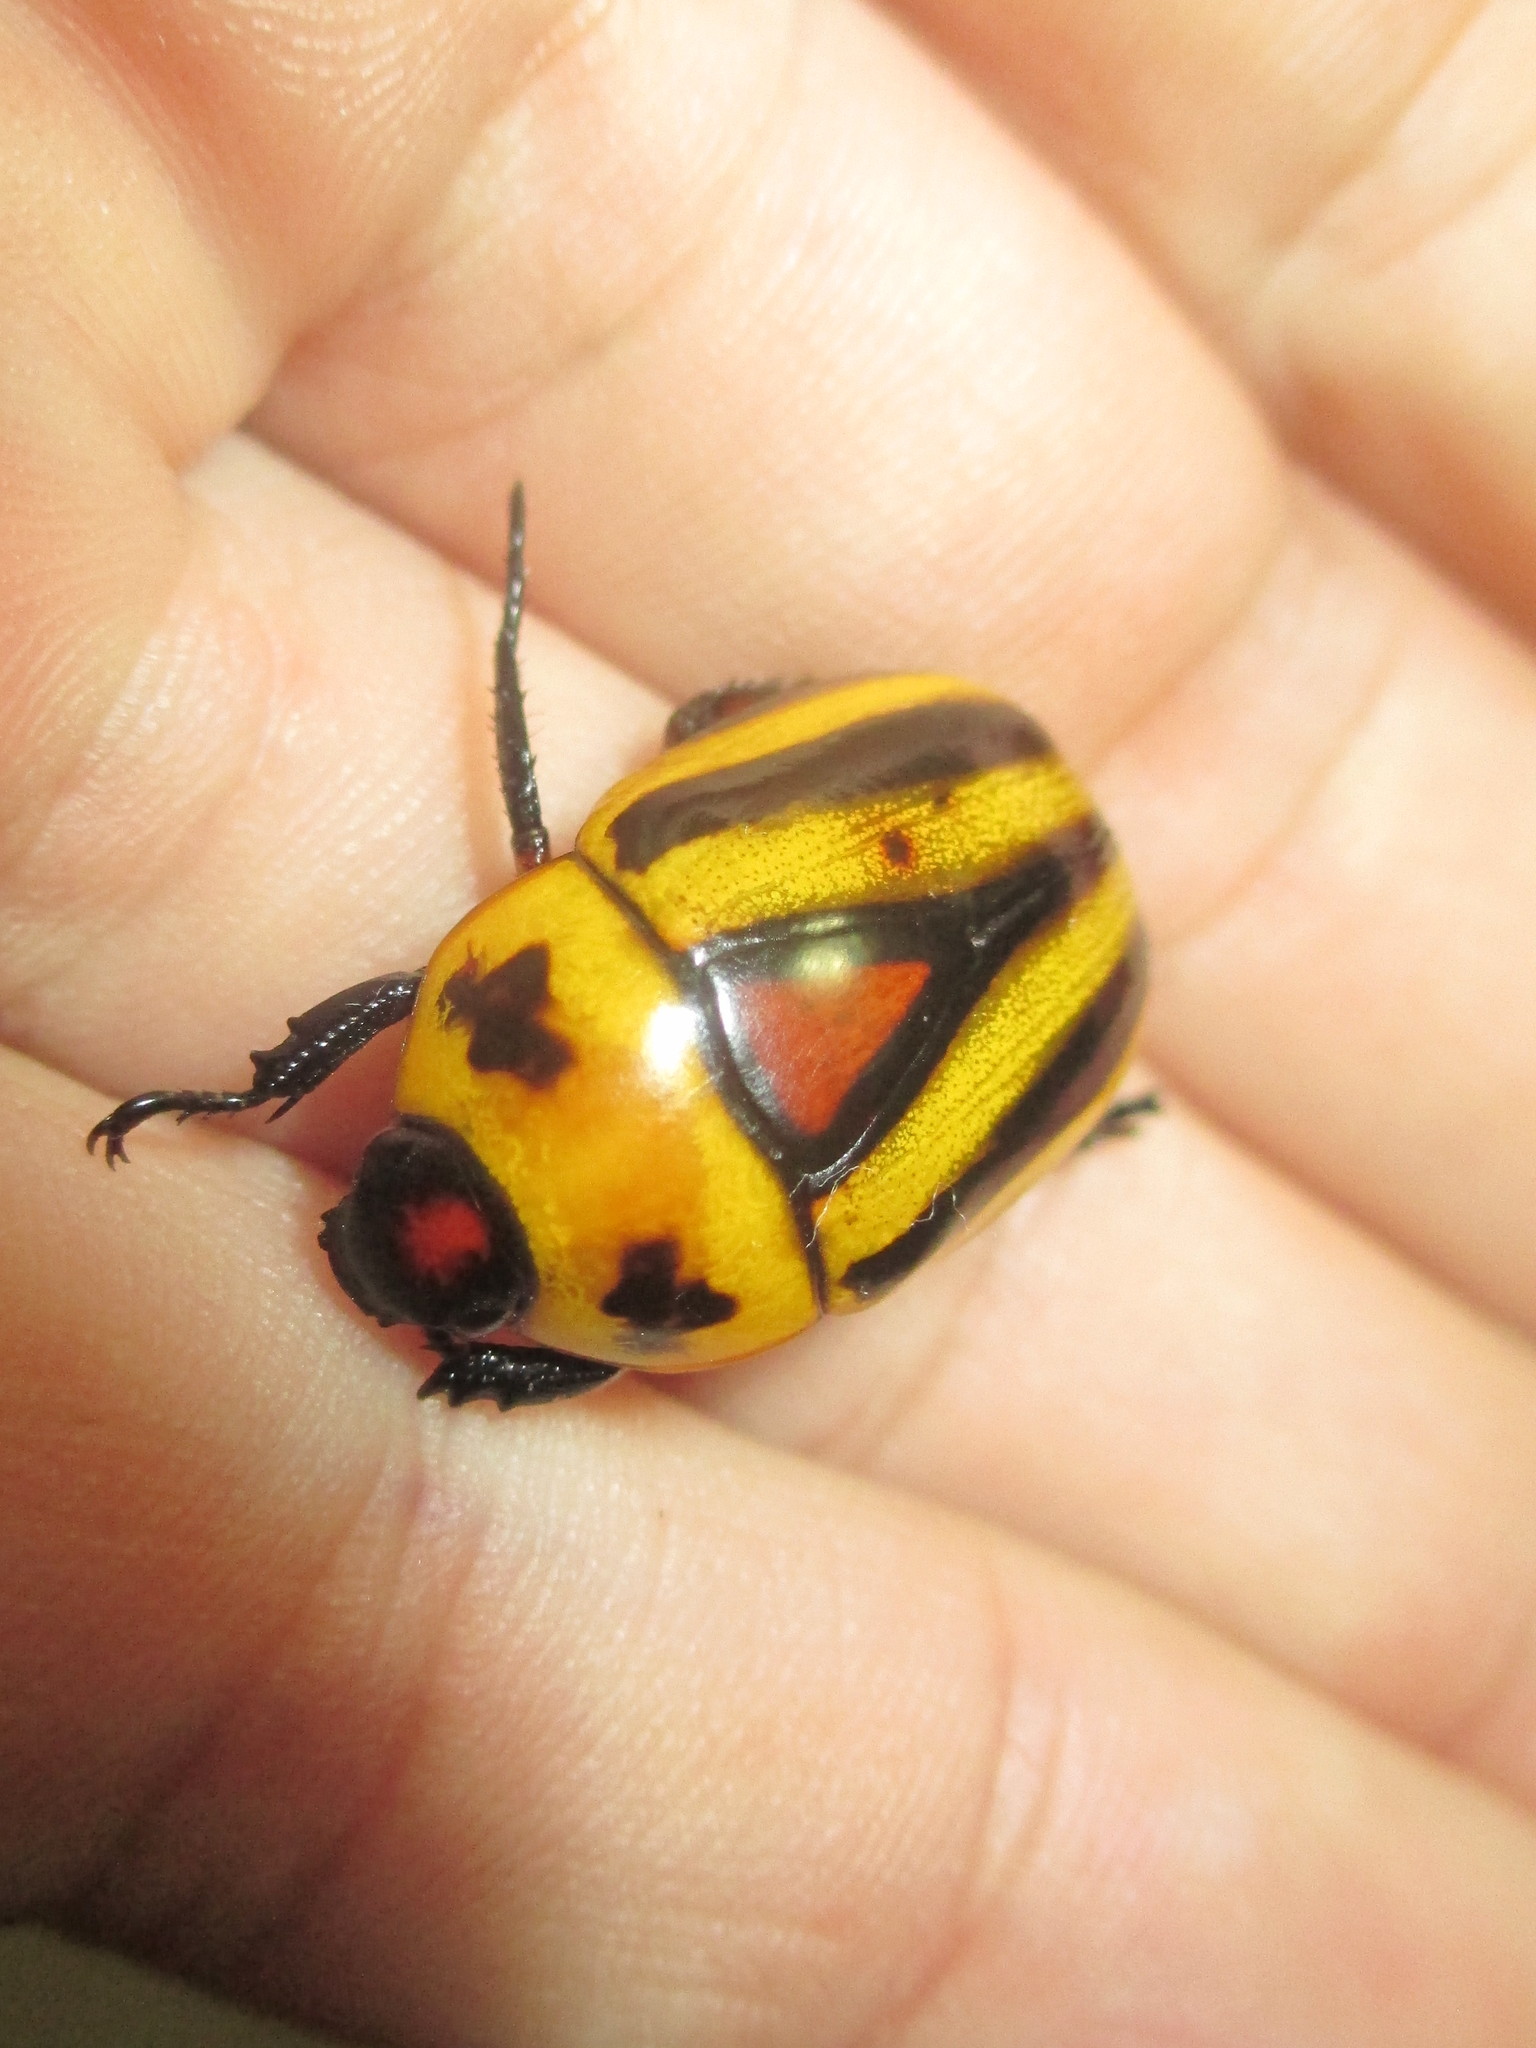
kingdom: Animalia
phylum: Arthropoda
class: Insecta
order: Coleoptera
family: Scarabaeidae
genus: Macraspis
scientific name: Macraspis cincta
